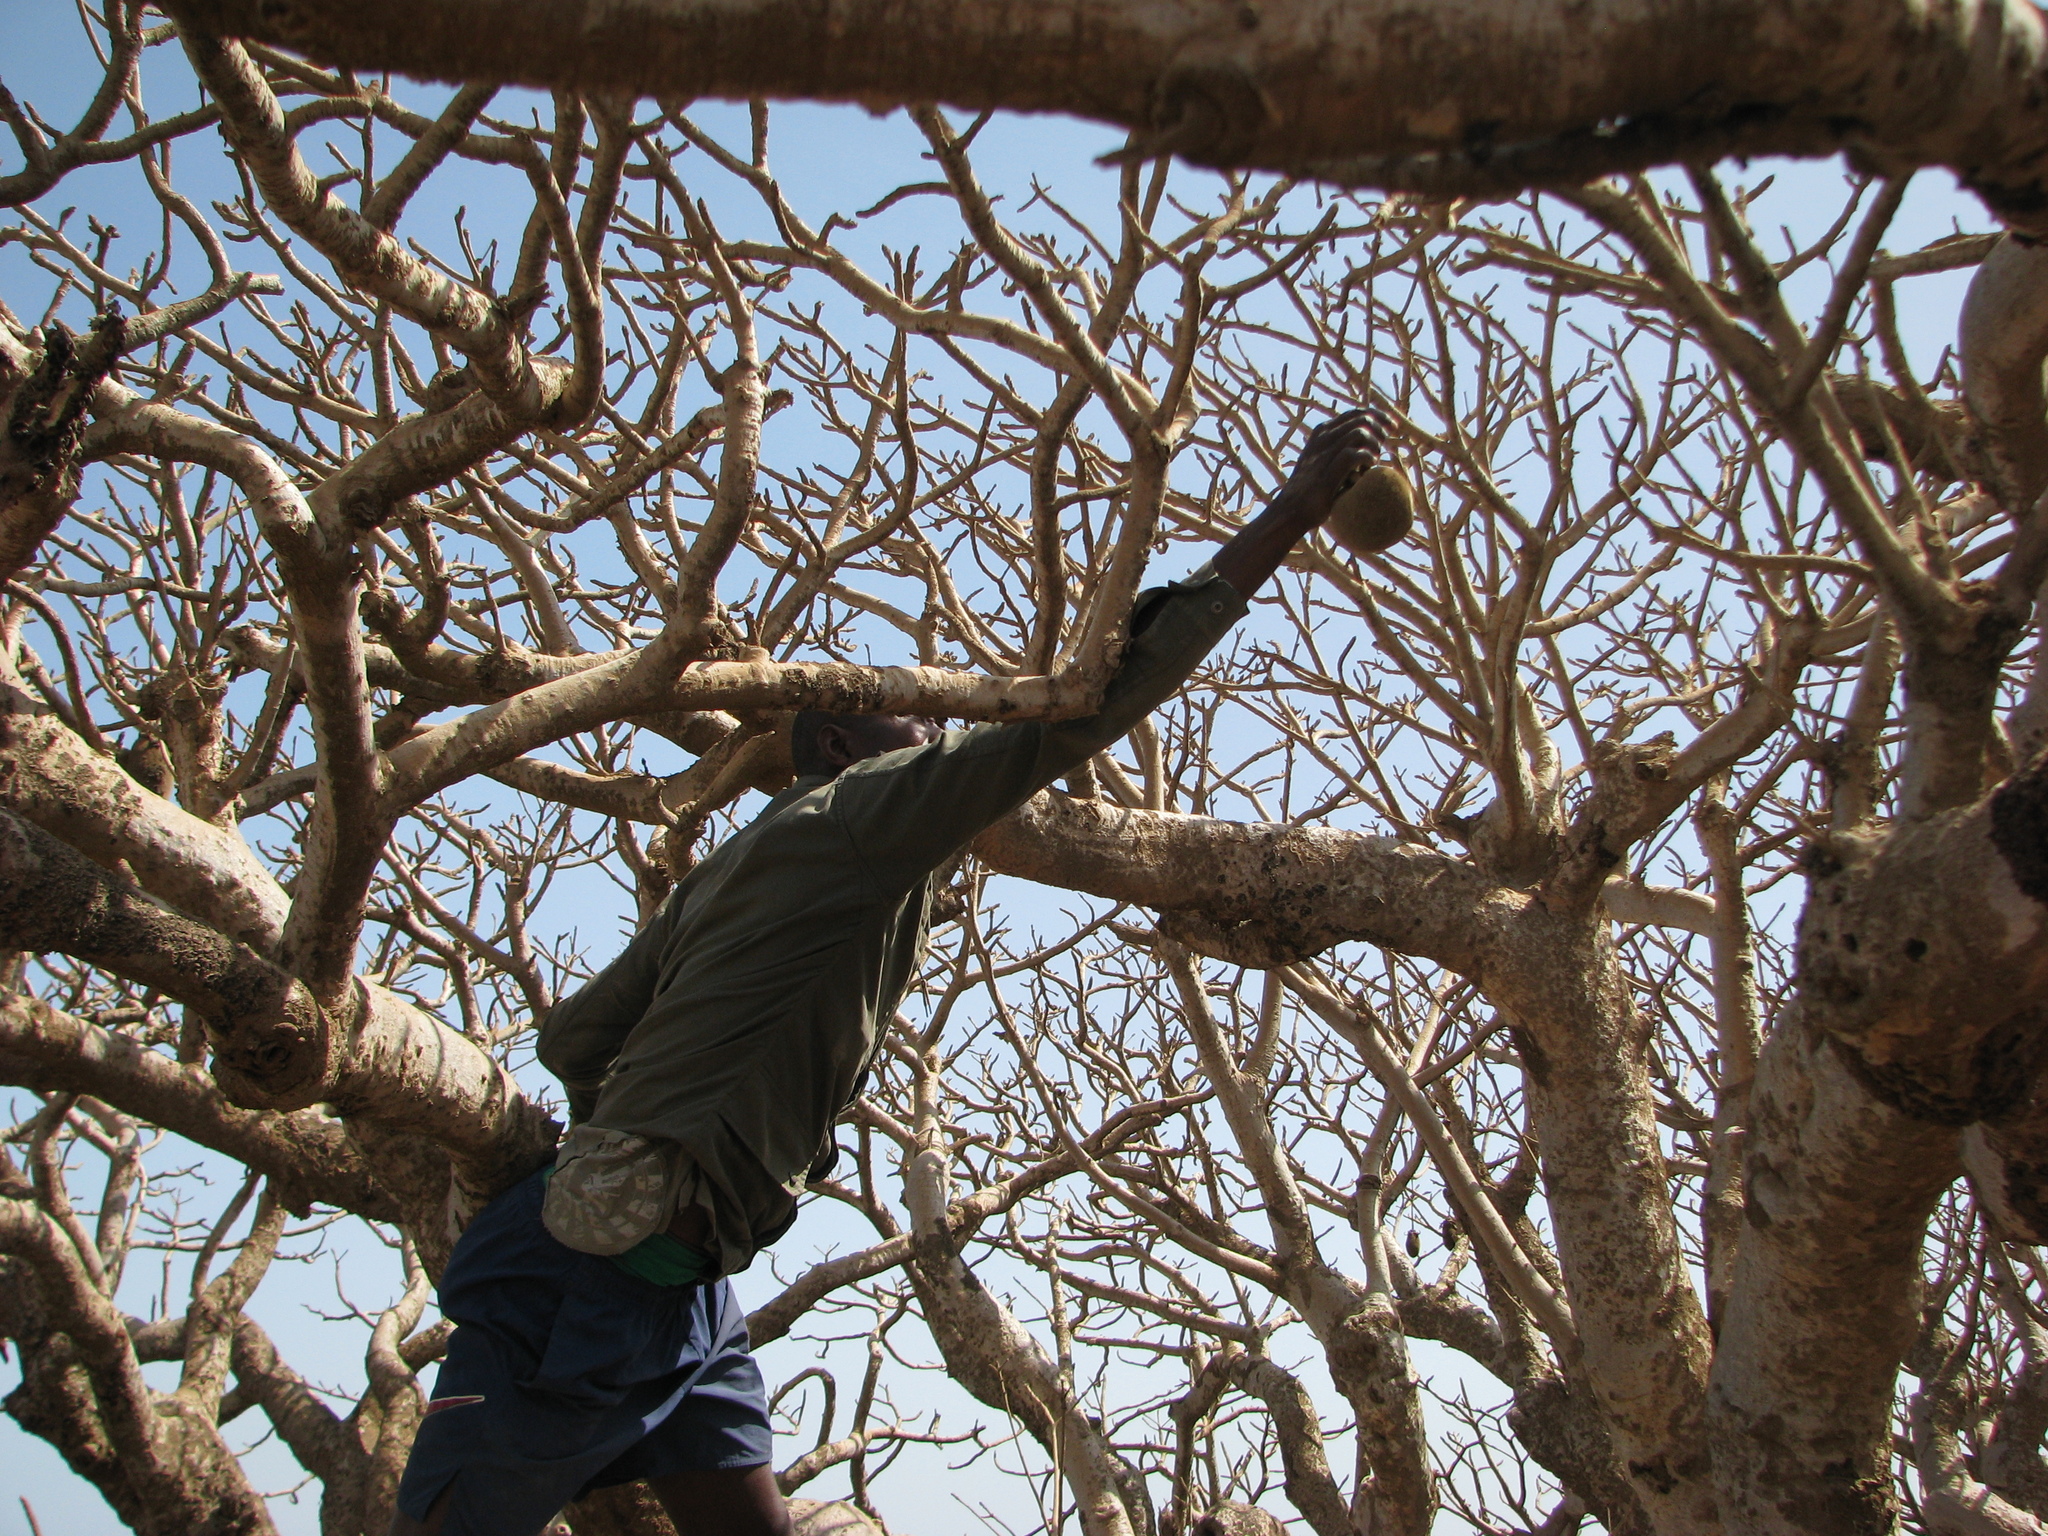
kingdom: Plantae
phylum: Tracheophyta
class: Magnoliopsida
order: Malvales
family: Malvaceae
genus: Adansonia
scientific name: Adansonia digitata
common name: Dead-rat-tree
